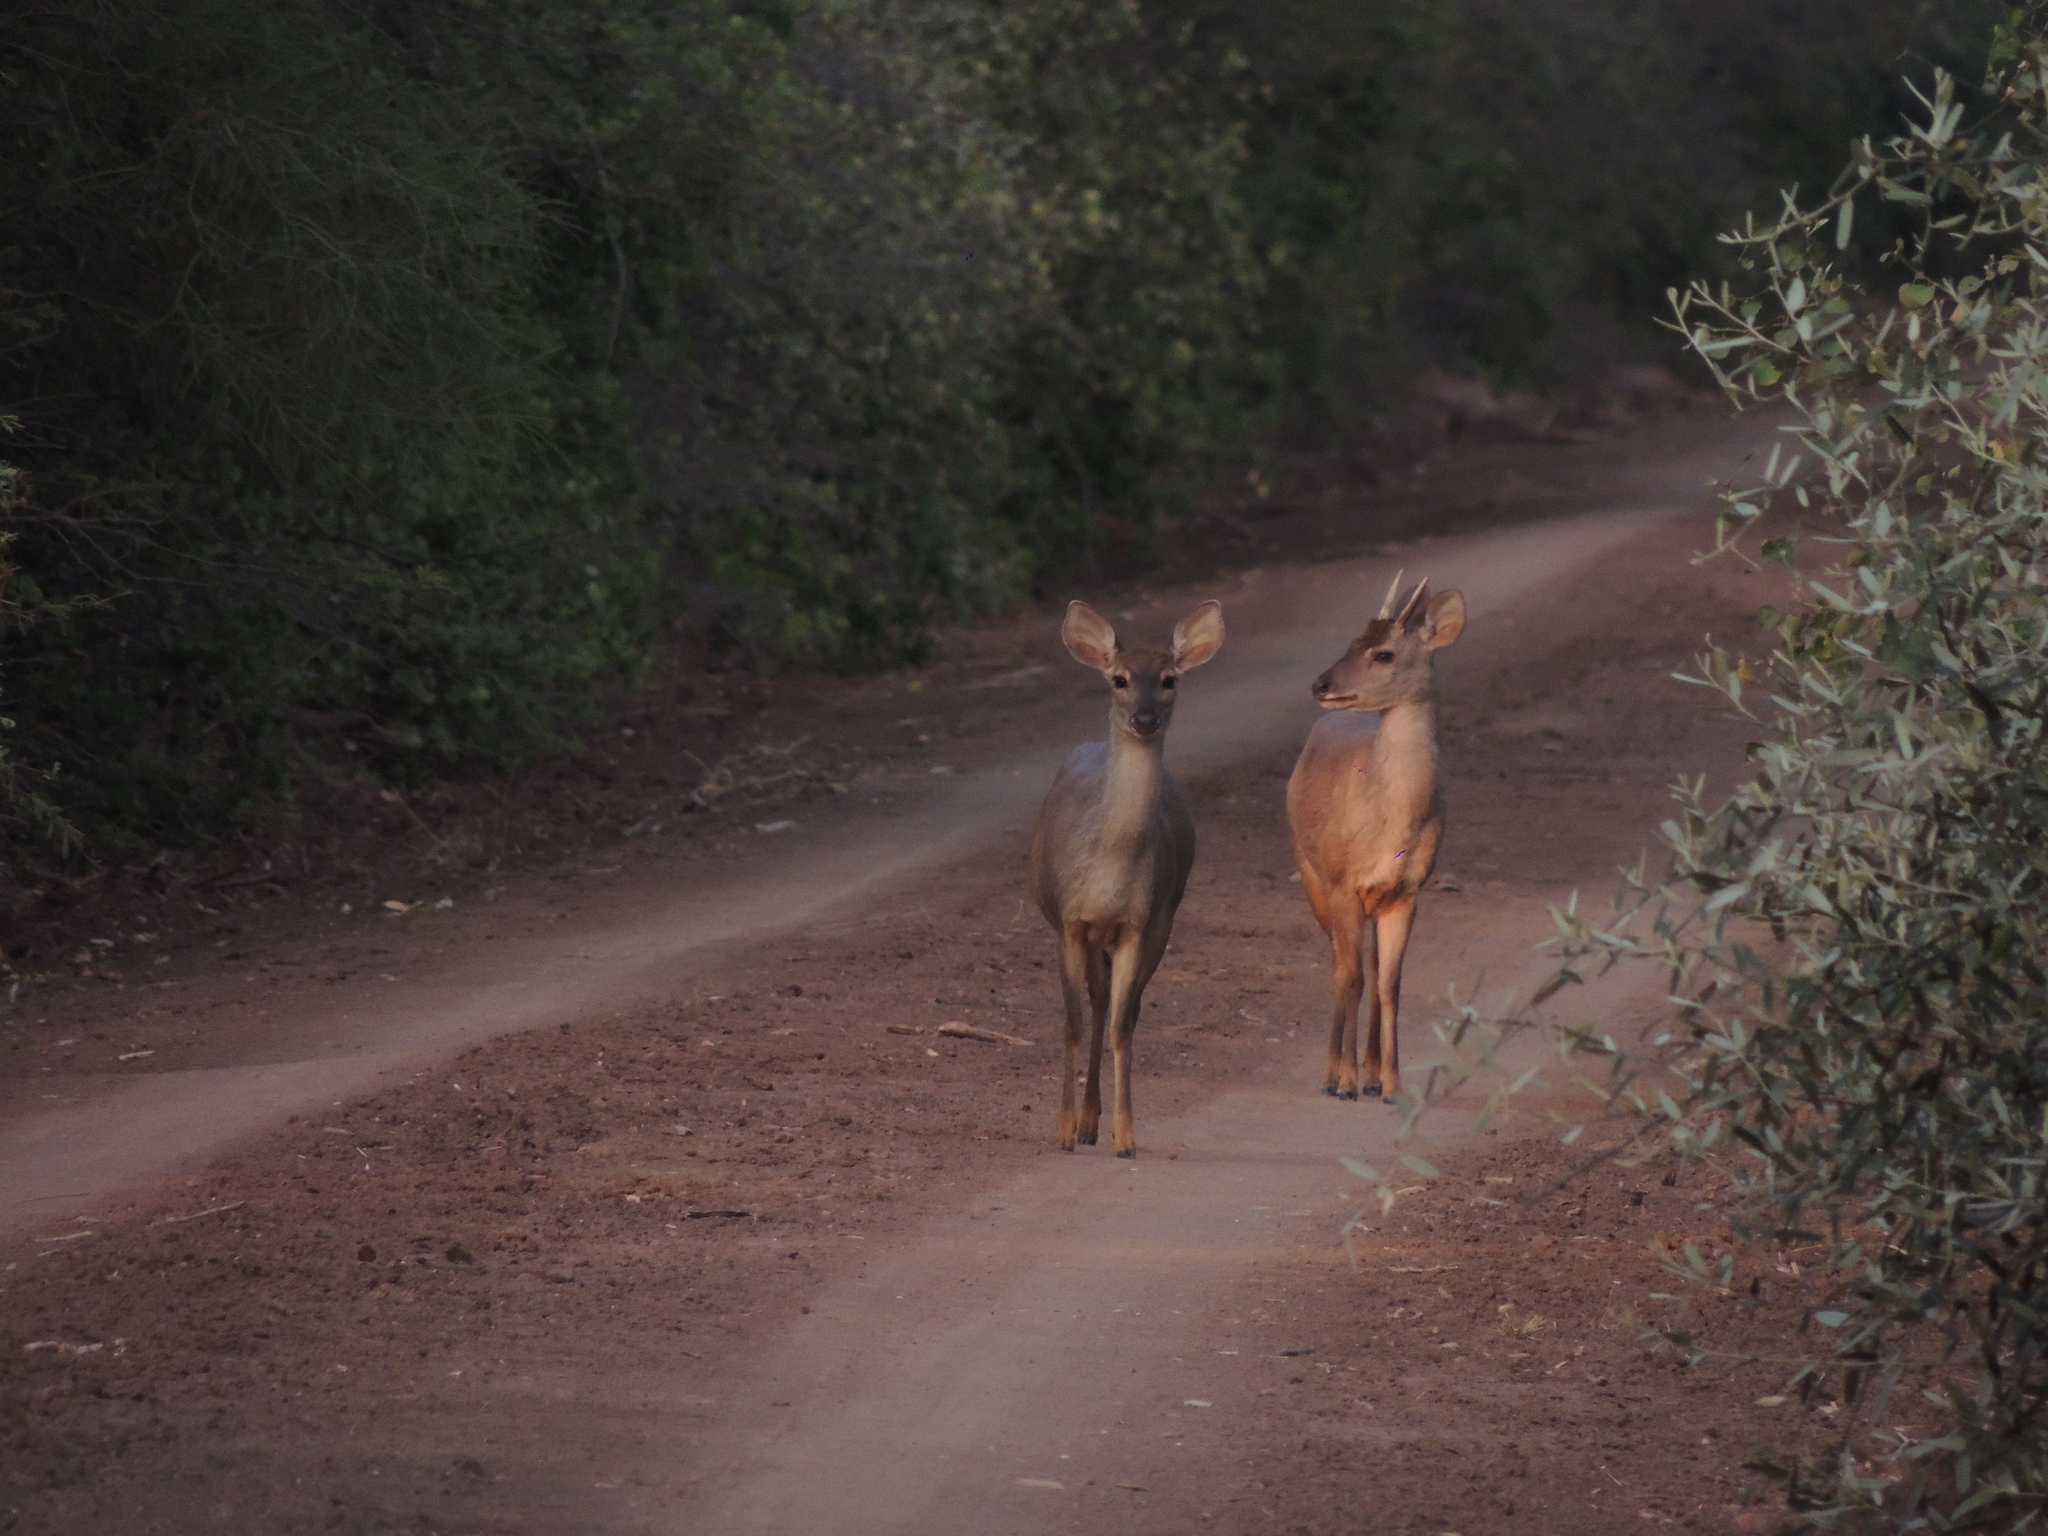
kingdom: Animalia
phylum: Chordata
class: Mammalia
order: Artiodactyla
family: Cervidae
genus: Mazama
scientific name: Mazama gouazoubira
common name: Gray brocket
